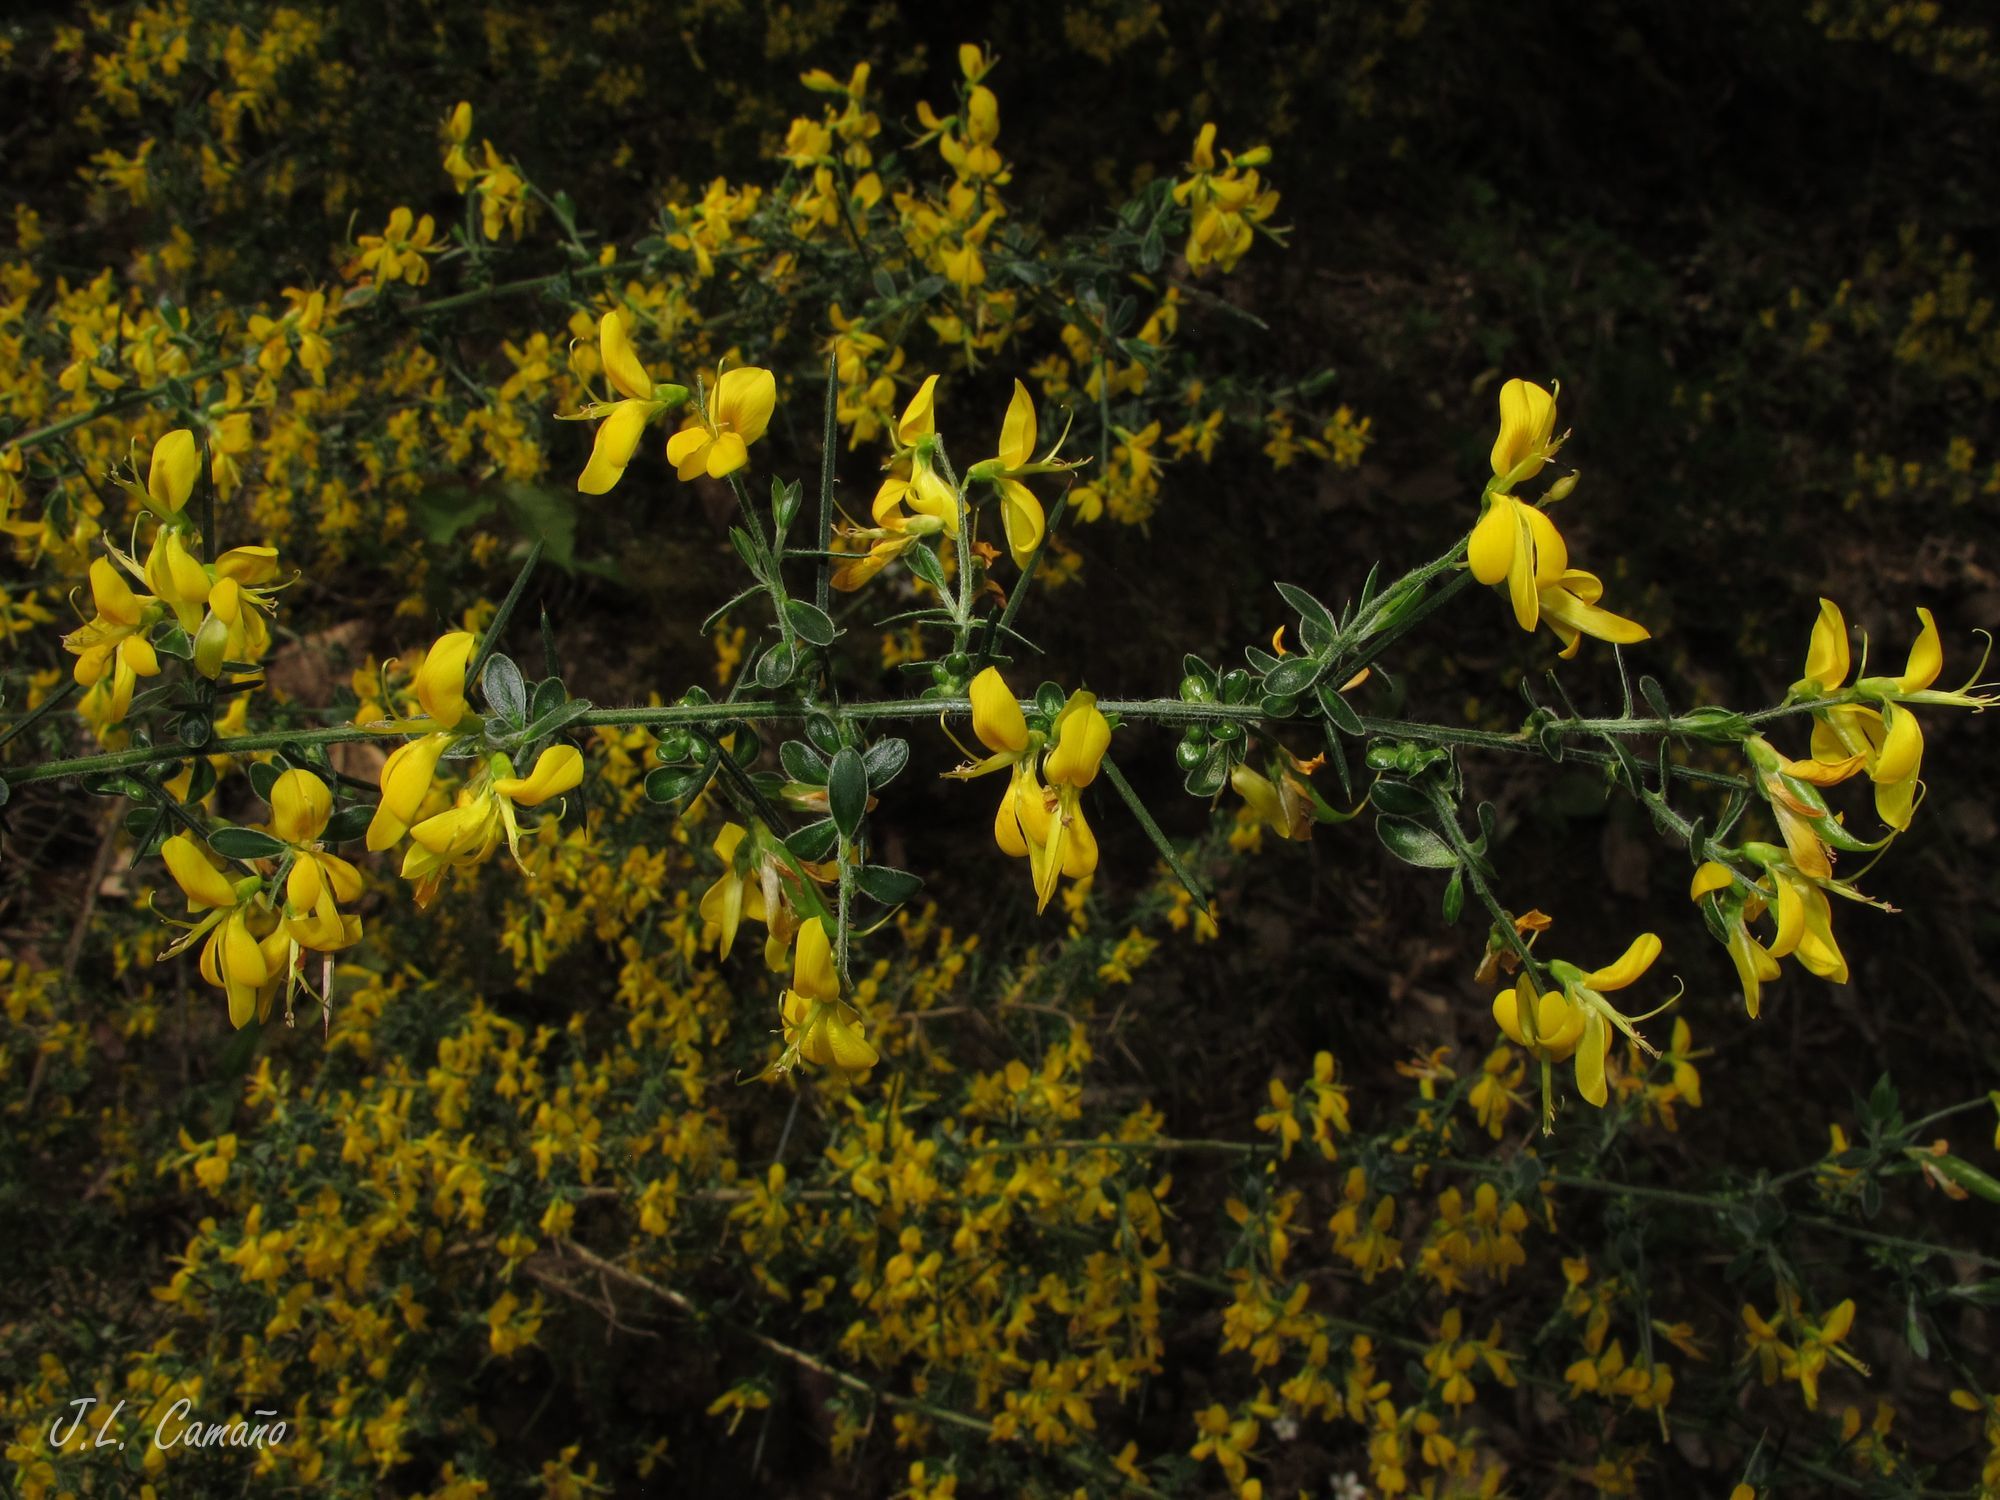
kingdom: Plantae
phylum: Tracheophyta
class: Magnoliopsida
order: Fabales
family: Fabaceae
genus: Genista
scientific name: Genista falcata
